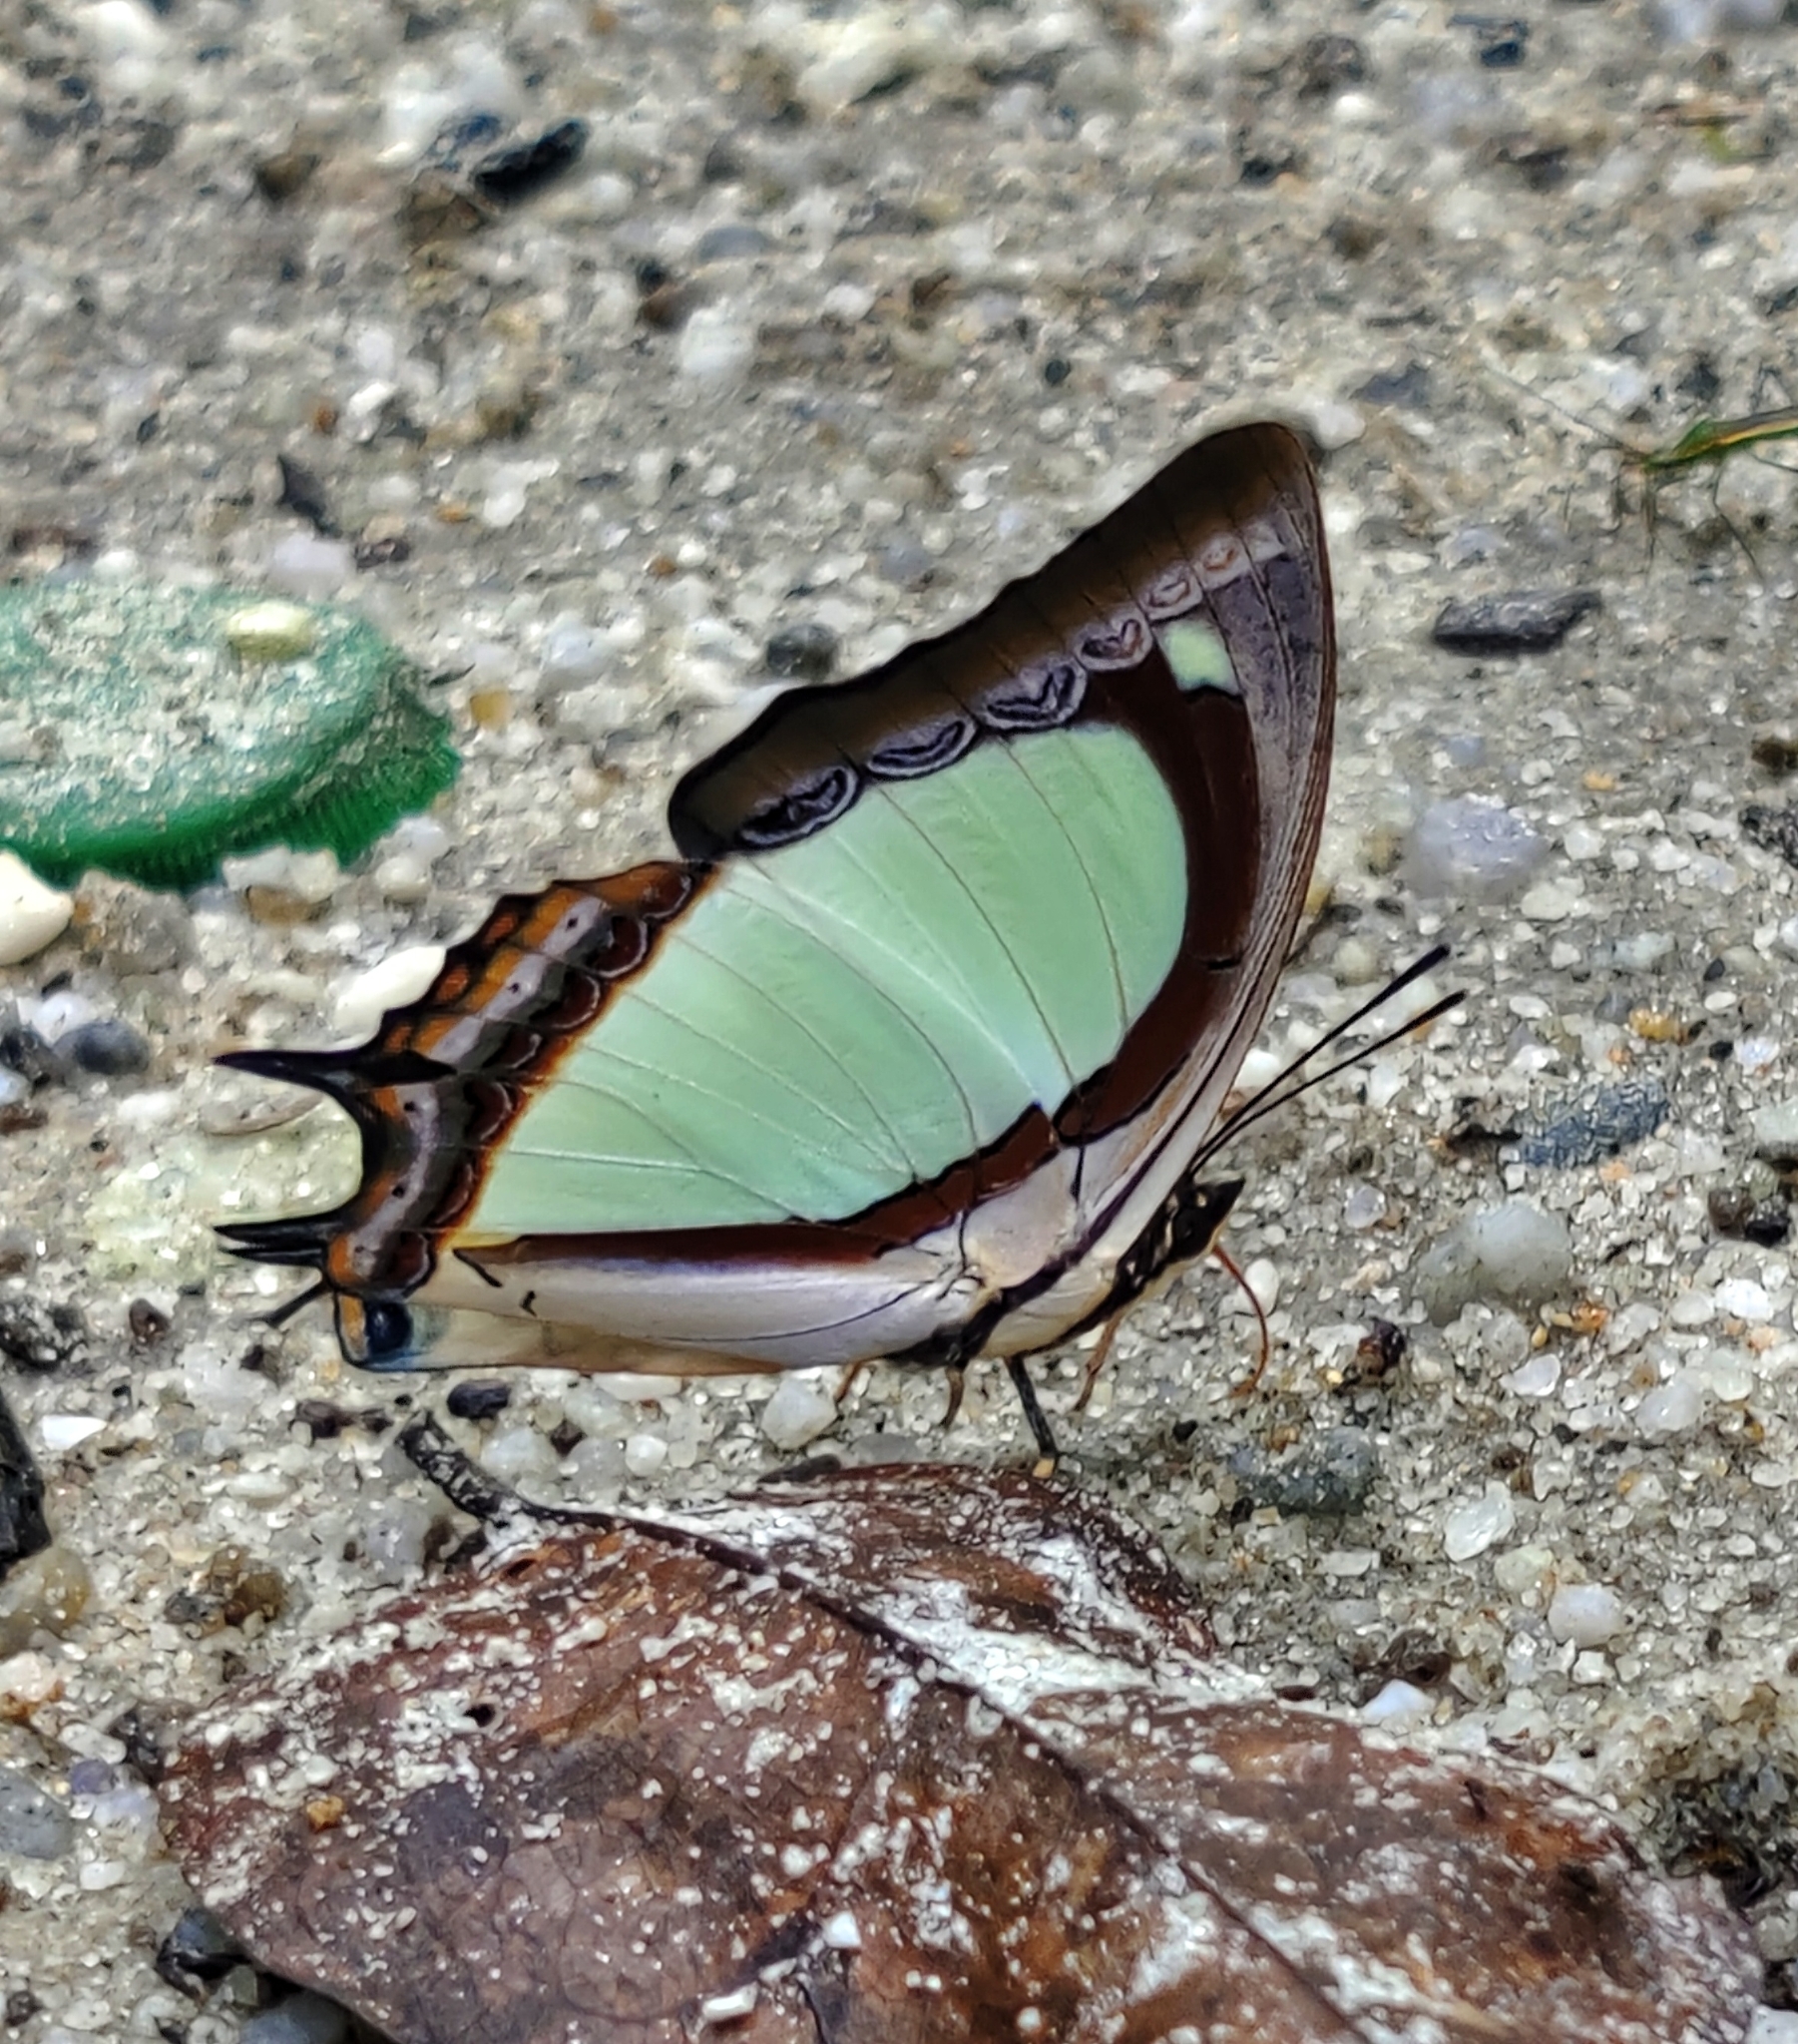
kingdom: Animalia
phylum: Arthropoda
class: Insecta
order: Lepidoptera
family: Nymphalidae
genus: Polyura
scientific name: Polyura jalysus
